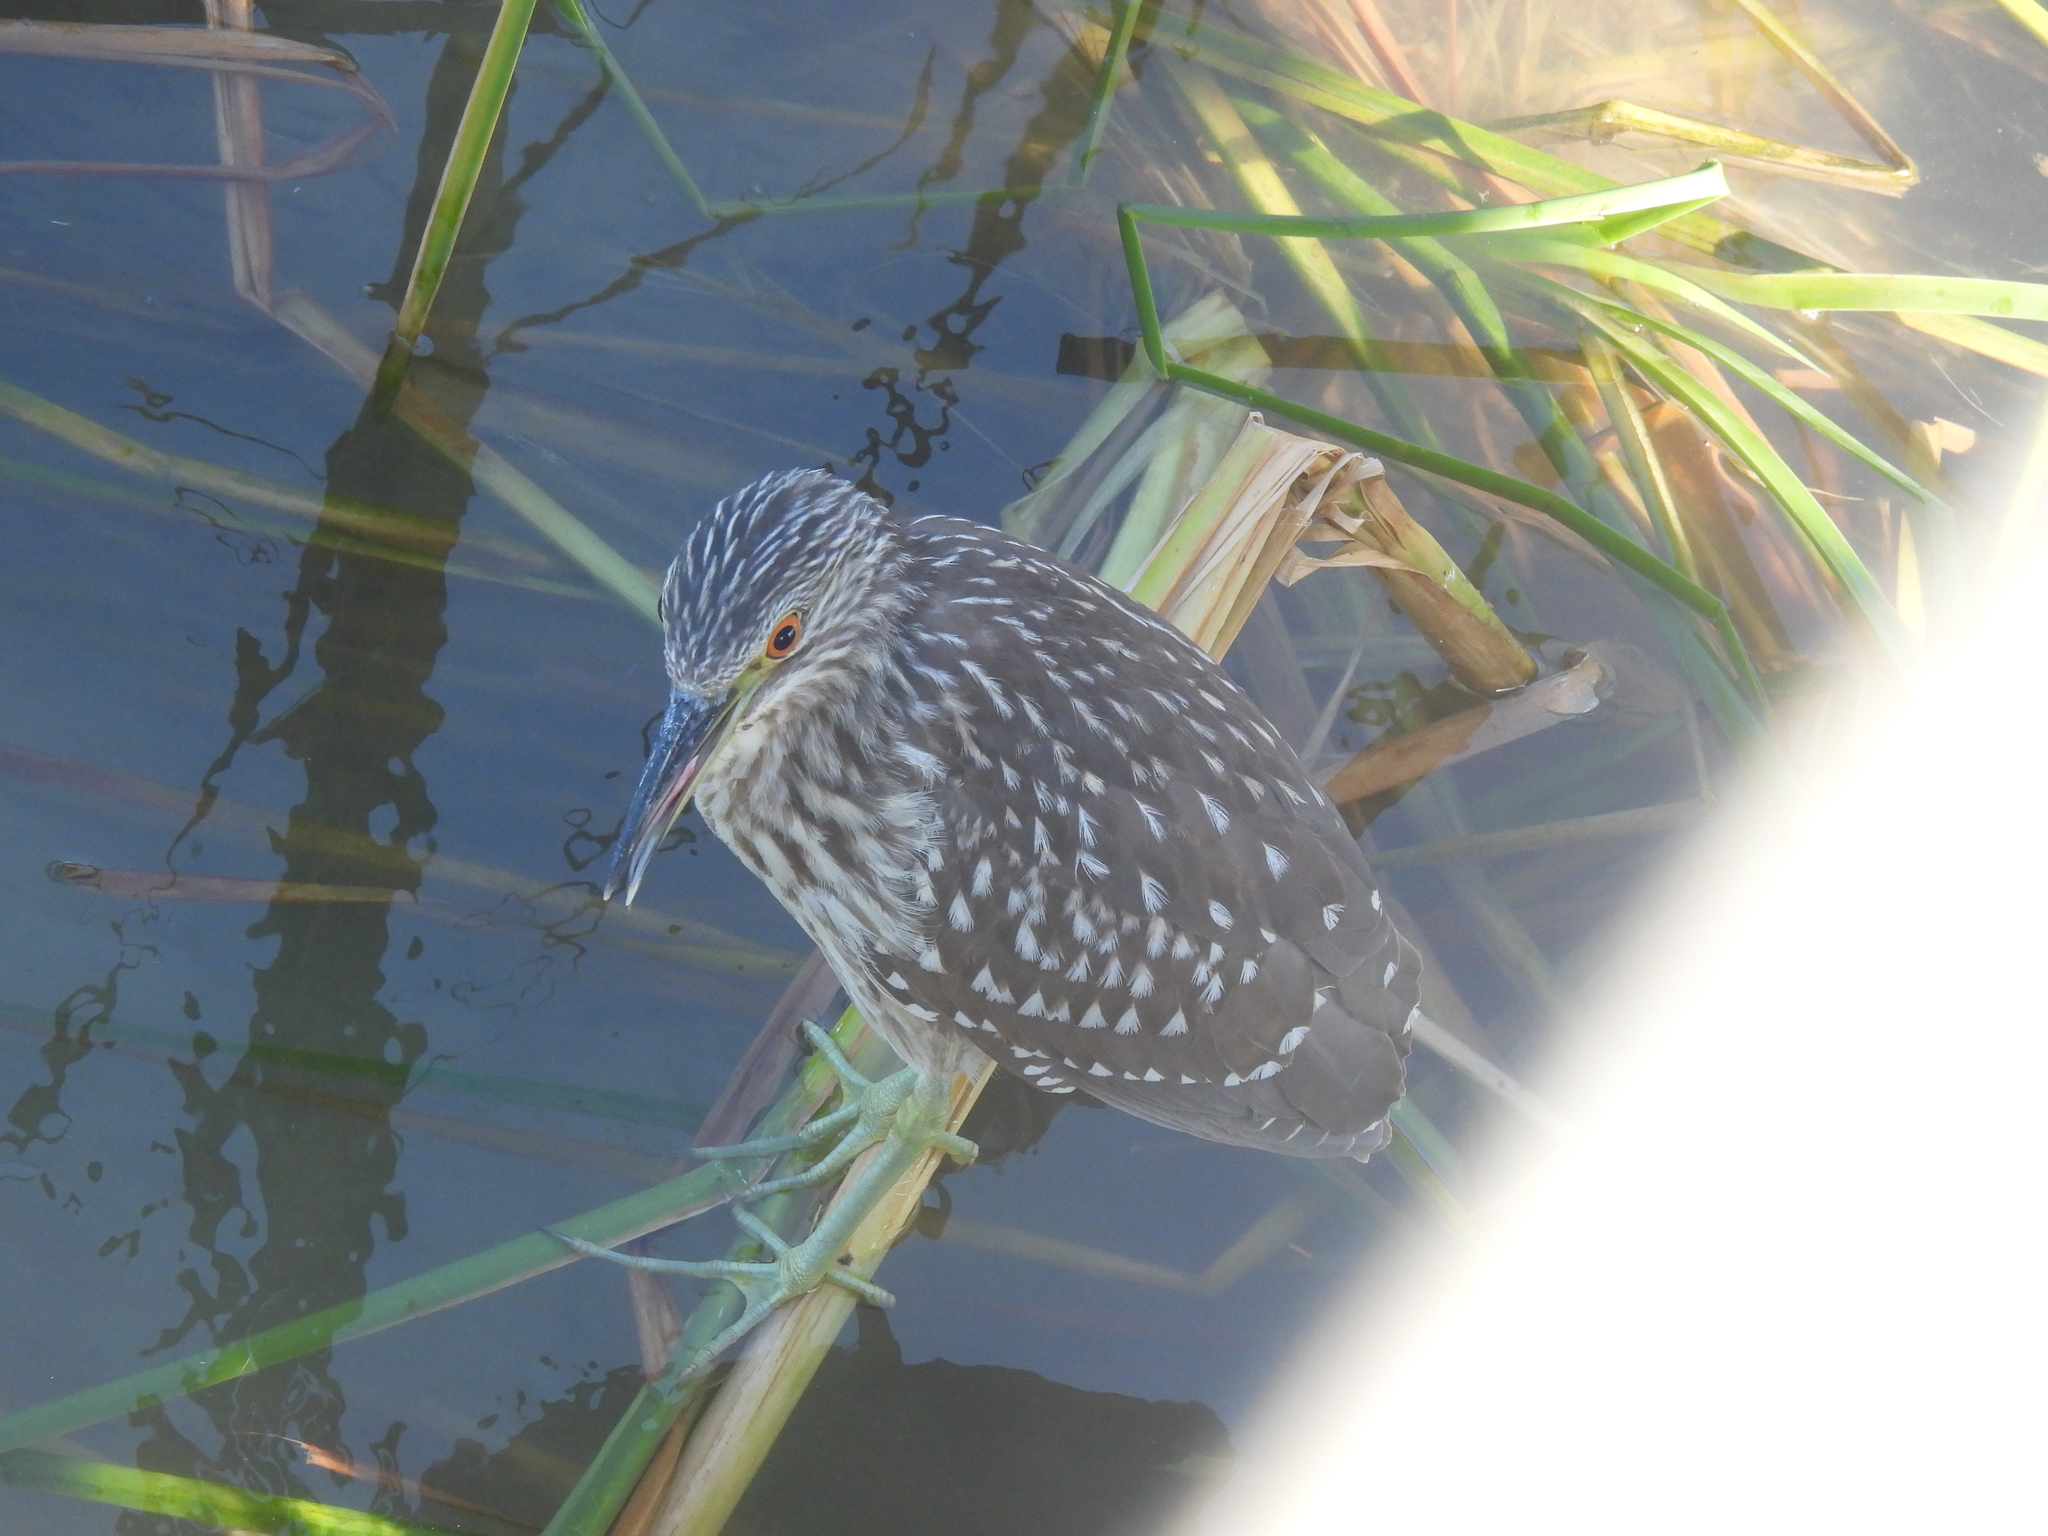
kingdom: Animalia
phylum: Chordata
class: Aves
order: Pelecaniformes
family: Ardeidae
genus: Nycticorax
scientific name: Nycticorax nycticorax
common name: Black-crowned night heron
